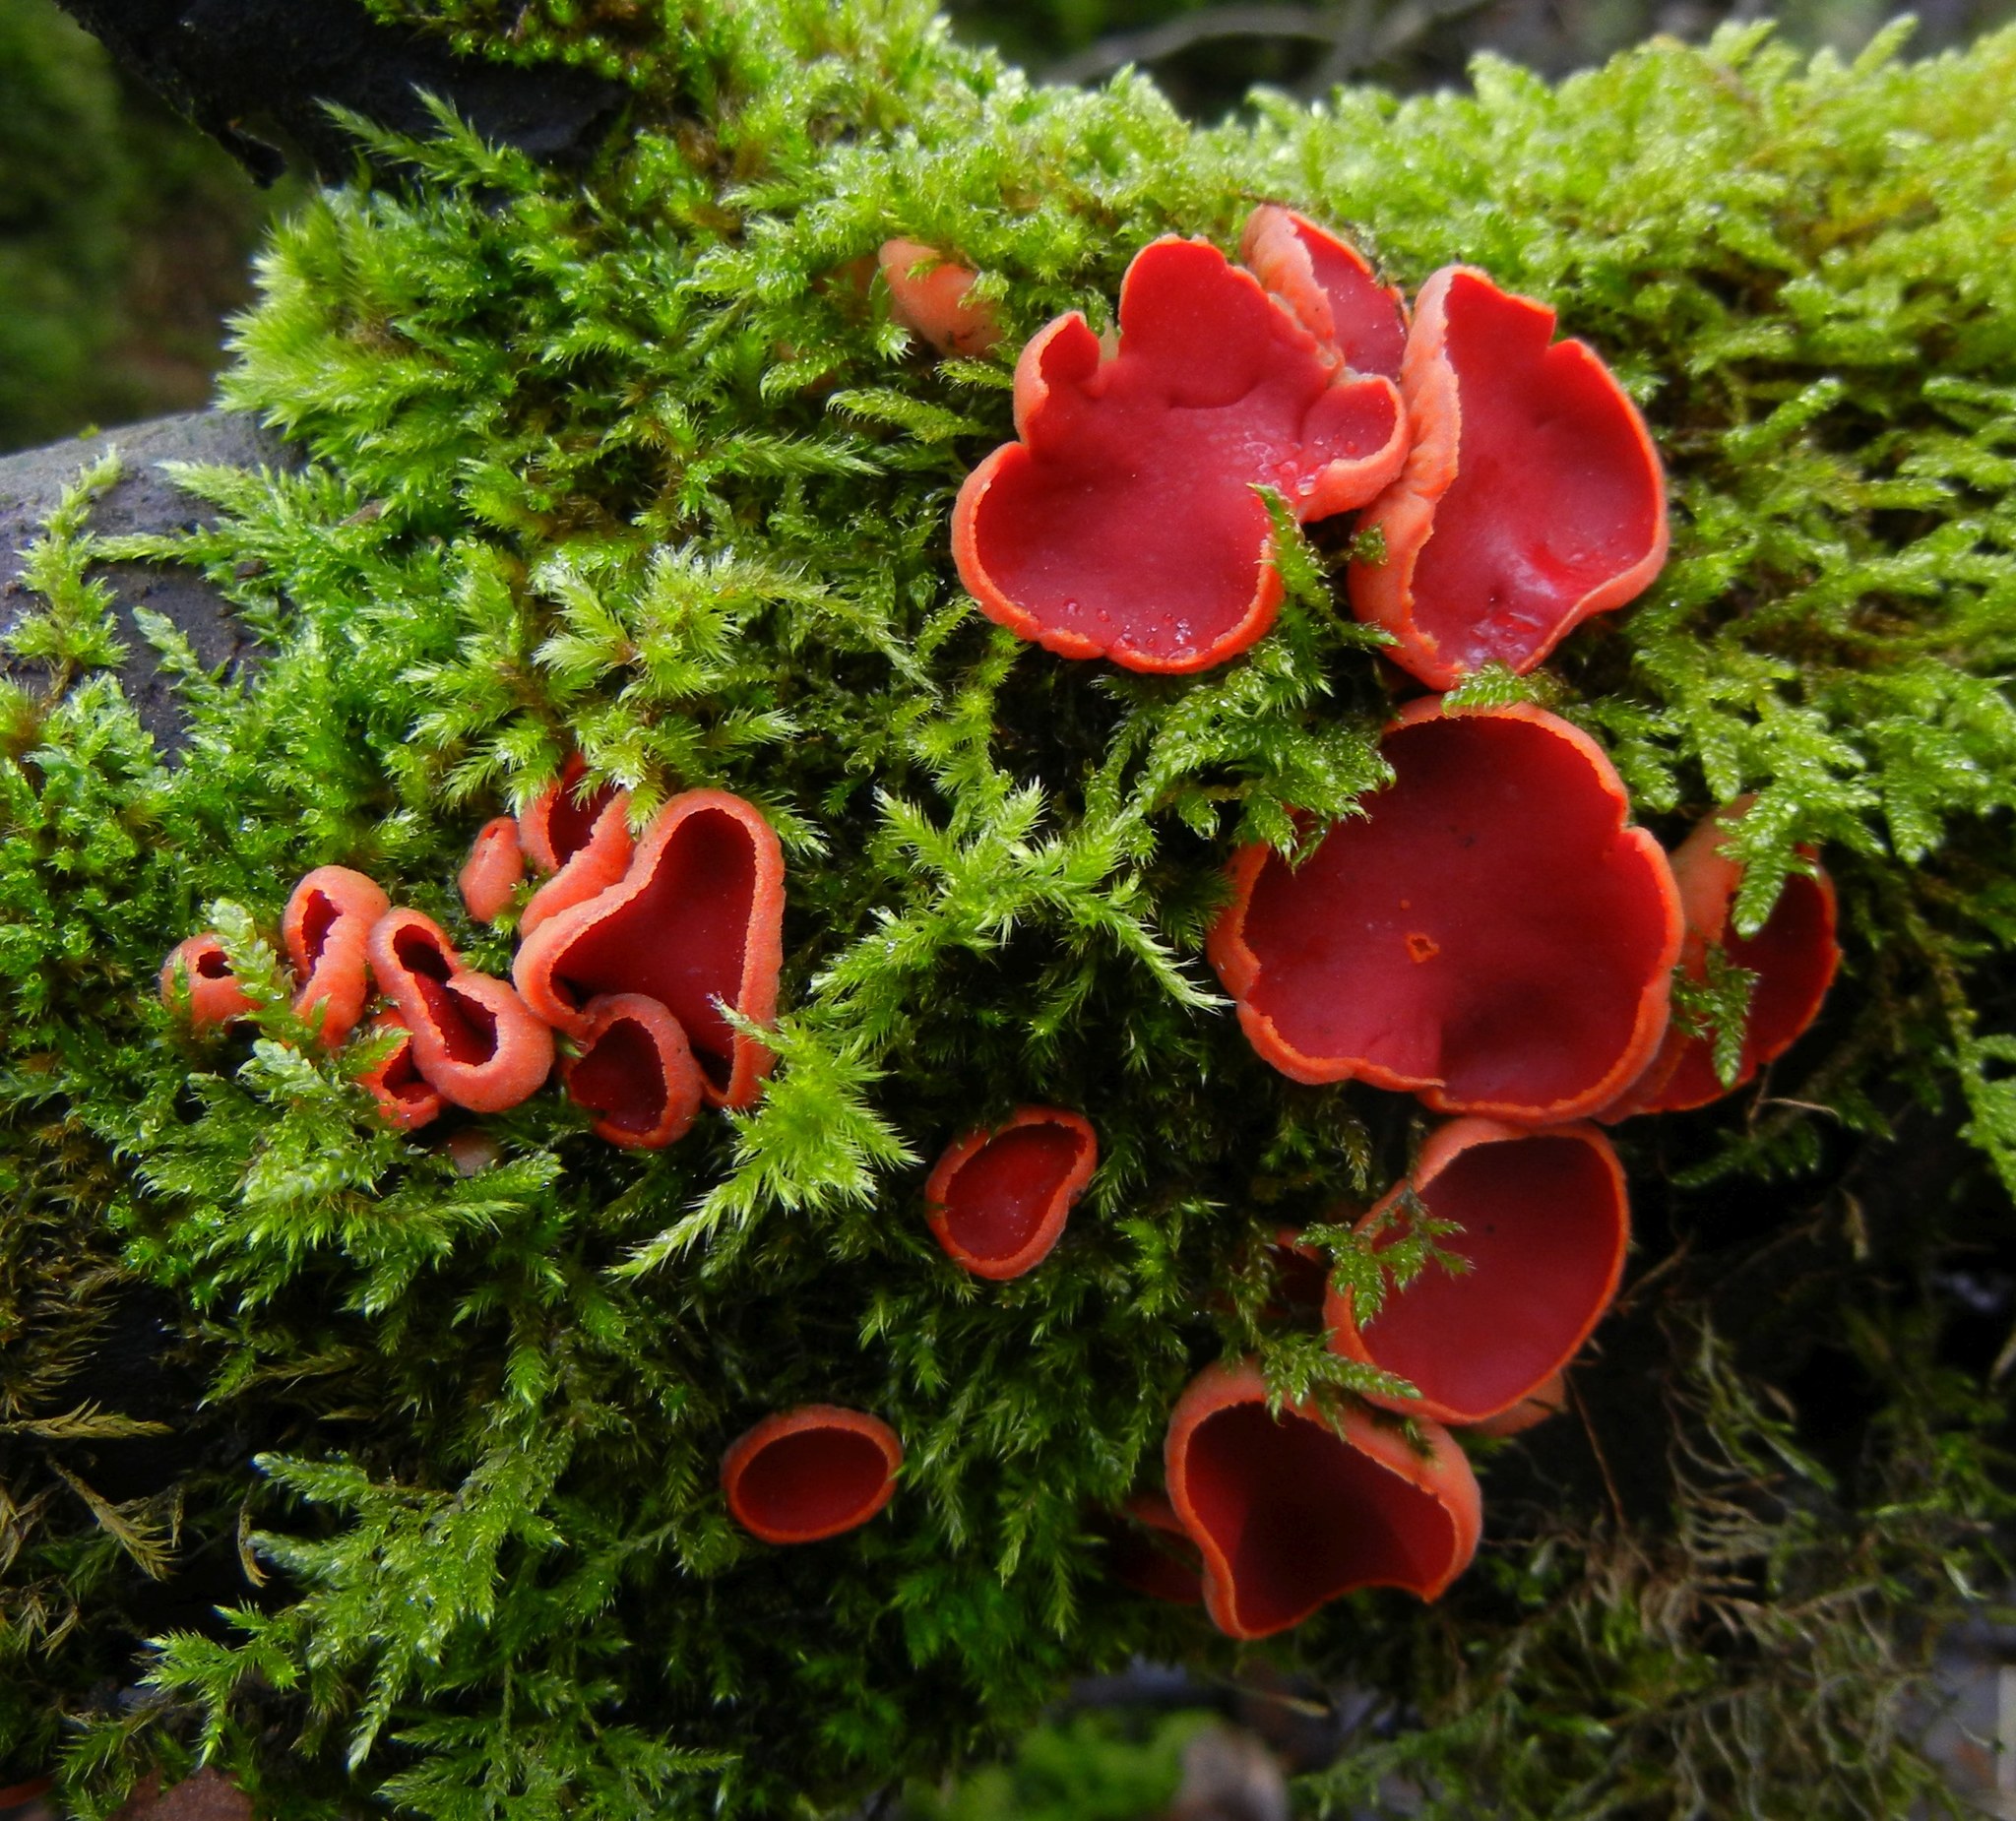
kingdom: Fungi
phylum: Ascomycota
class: Pezizomycetes
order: Pezizales
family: Sarcoscyphaceae
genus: Sarcoscypha
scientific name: Sarcoscypha
